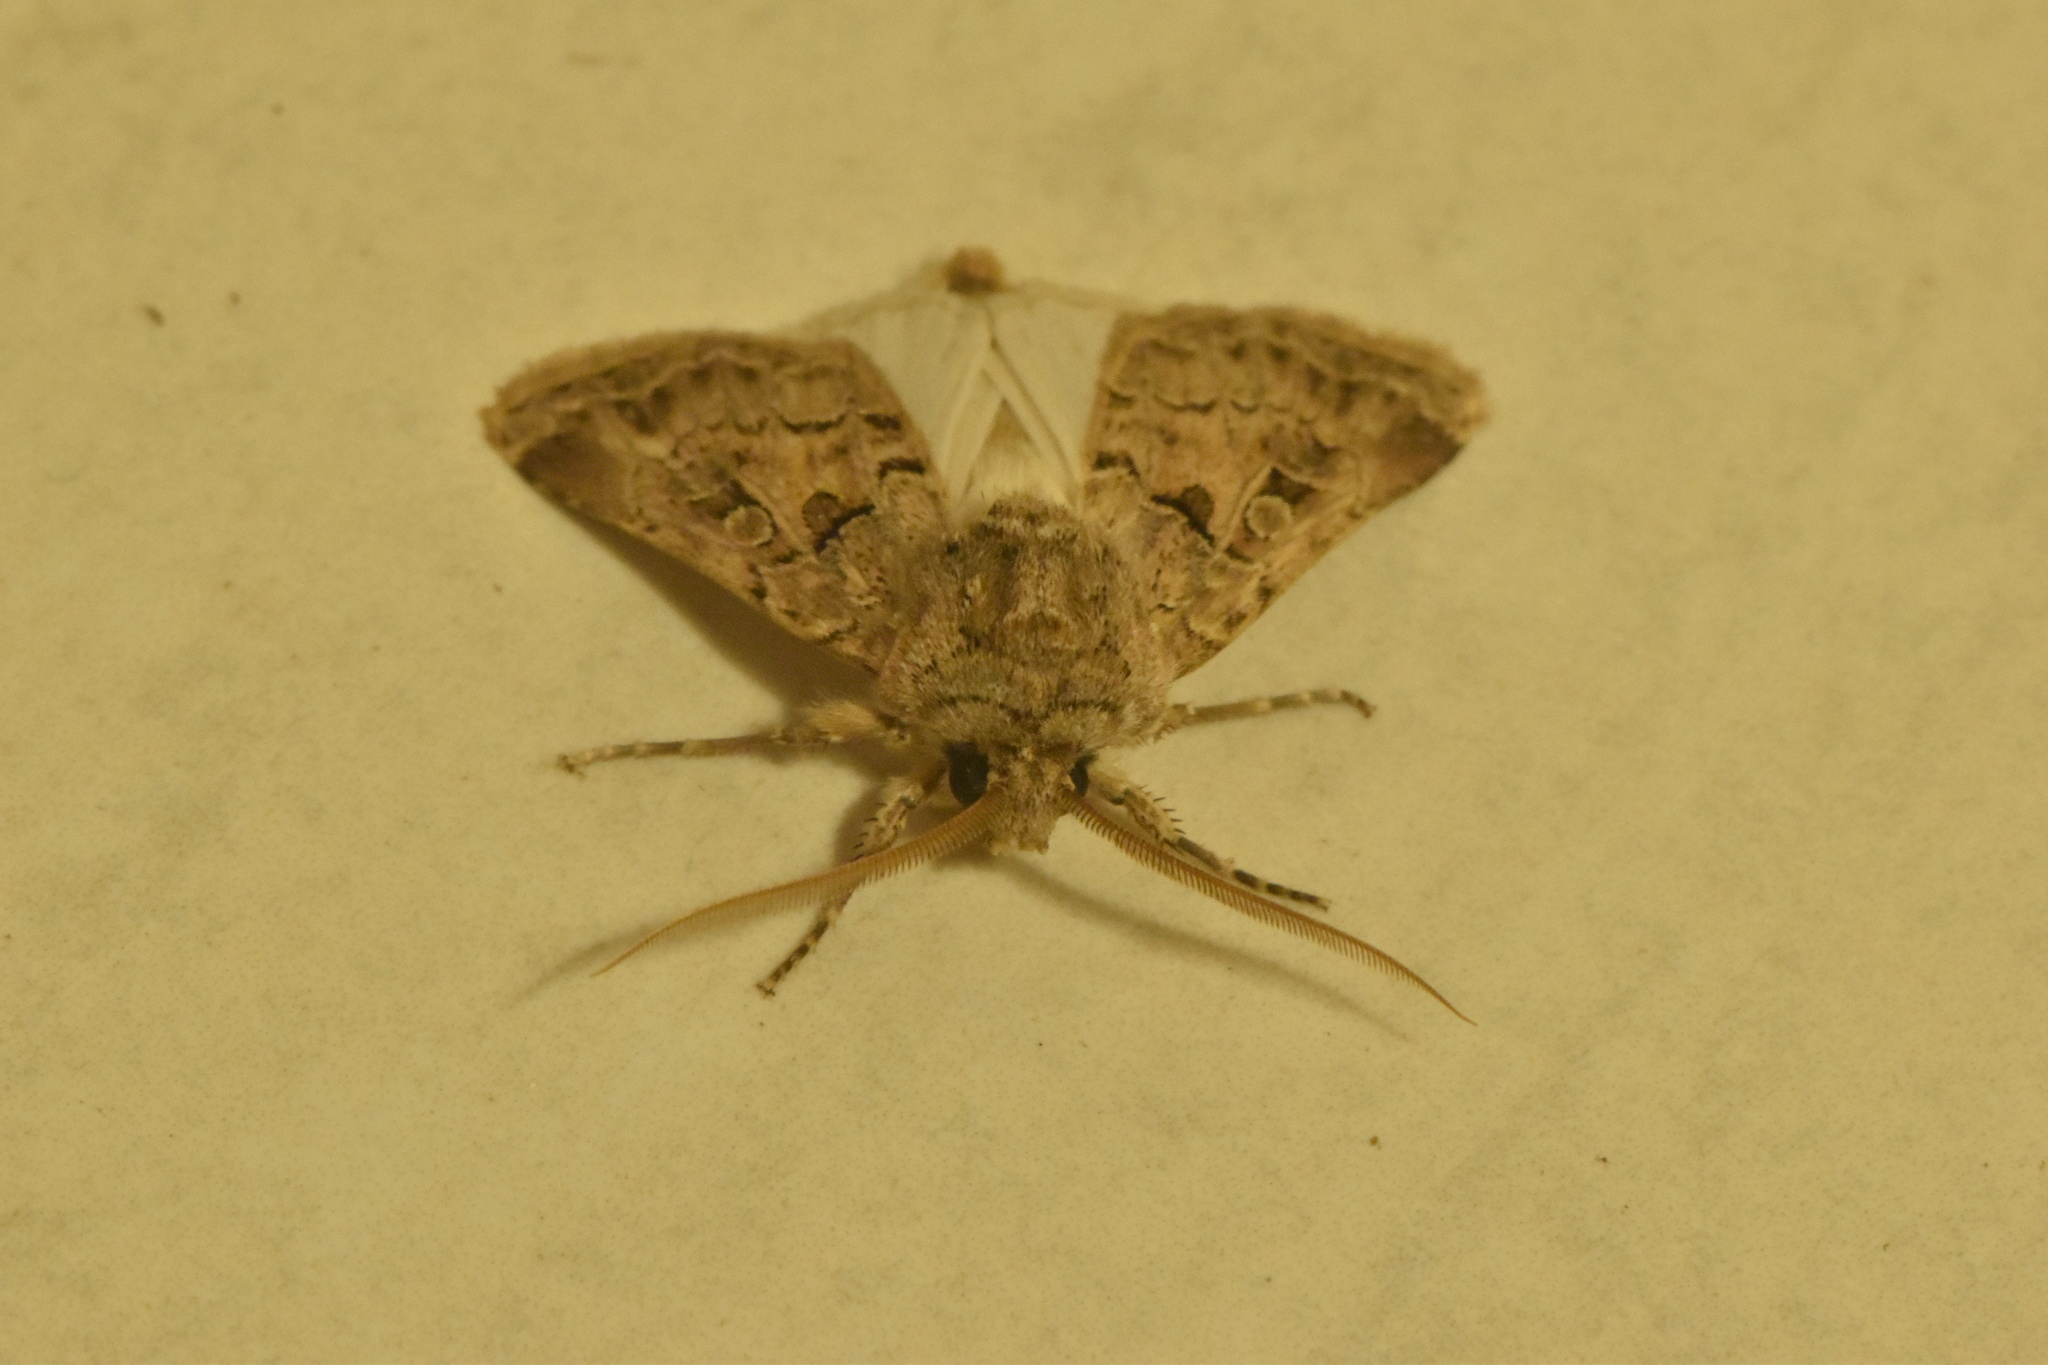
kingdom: Animalia
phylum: Arthropoda
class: Insecta
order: Lepidoptera
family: Noctuidae
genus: Agrotis
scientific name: Agrotis bigramma
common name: Great dart
